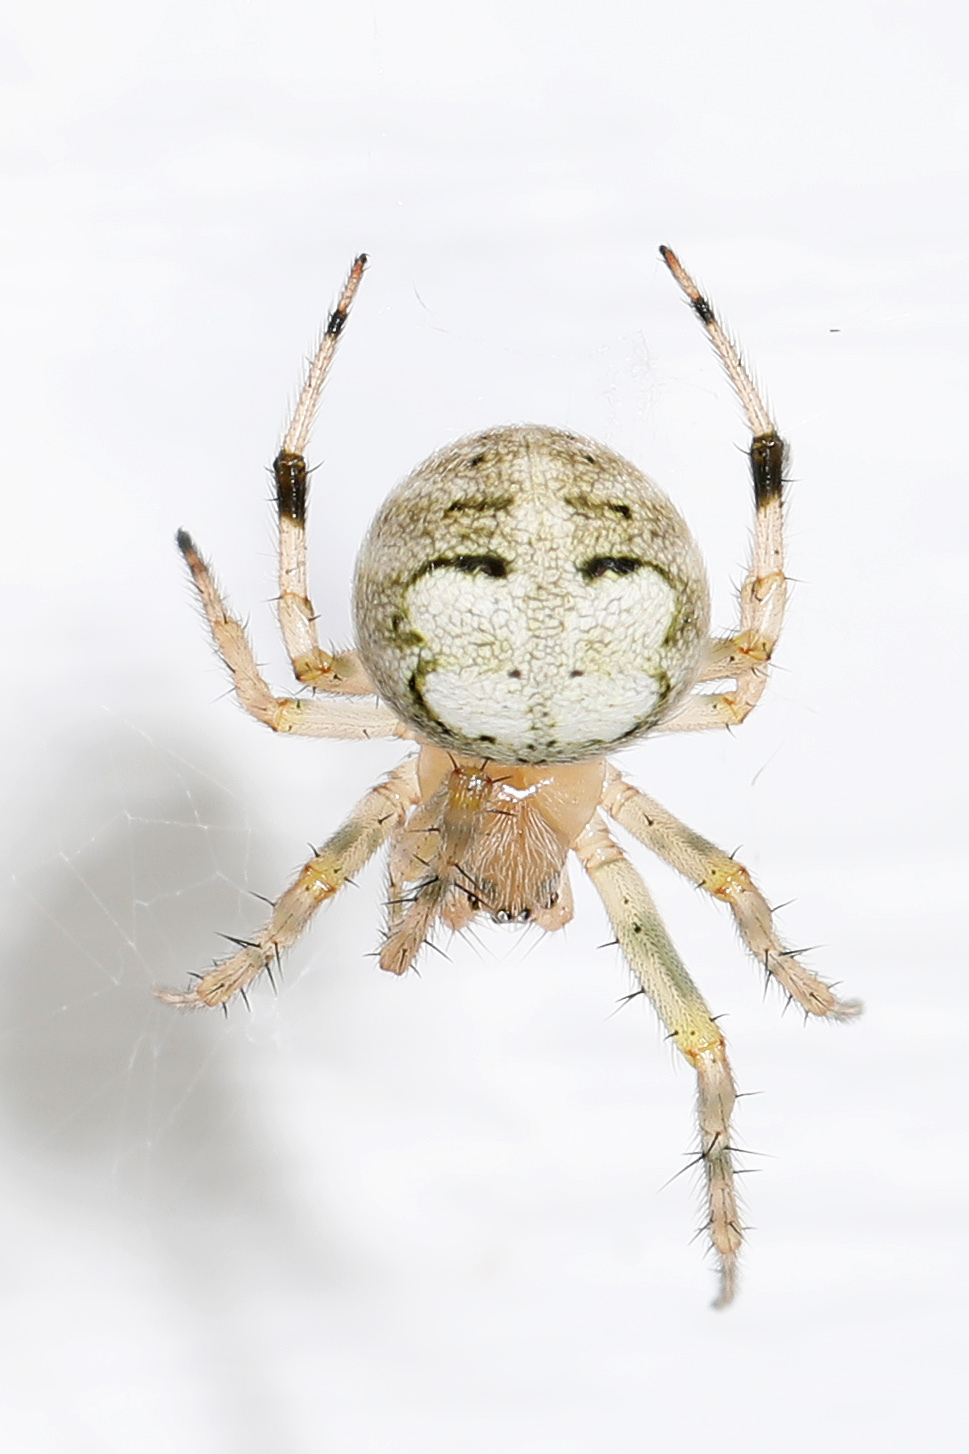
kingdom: Animalia
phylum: Arthropoda
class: Arachnida
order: Araneae
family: Araneidae
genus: Araneus
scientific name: Araneus pegnia
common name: Orb weavers
